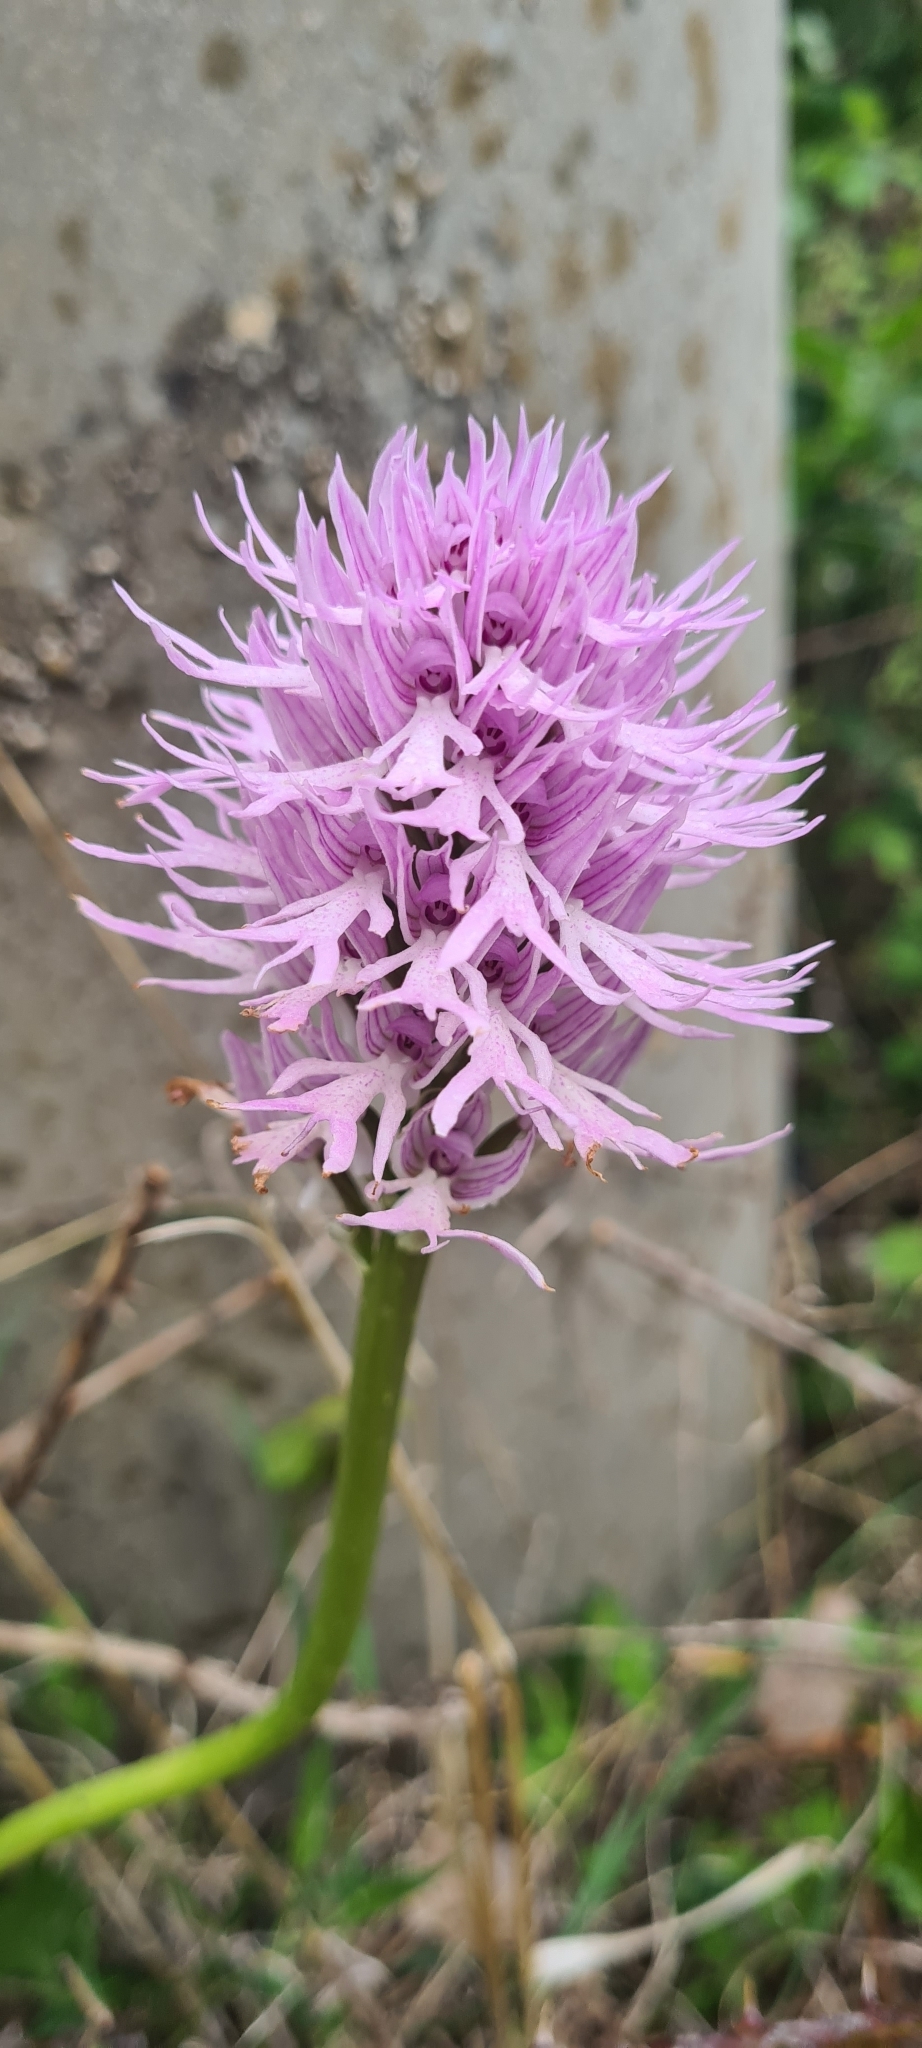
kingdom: Plantae
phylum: Tracheophyta
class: Liliopsida
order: Asparagales
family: Orchidaceae
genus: Orchis
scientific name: Orchis italica
